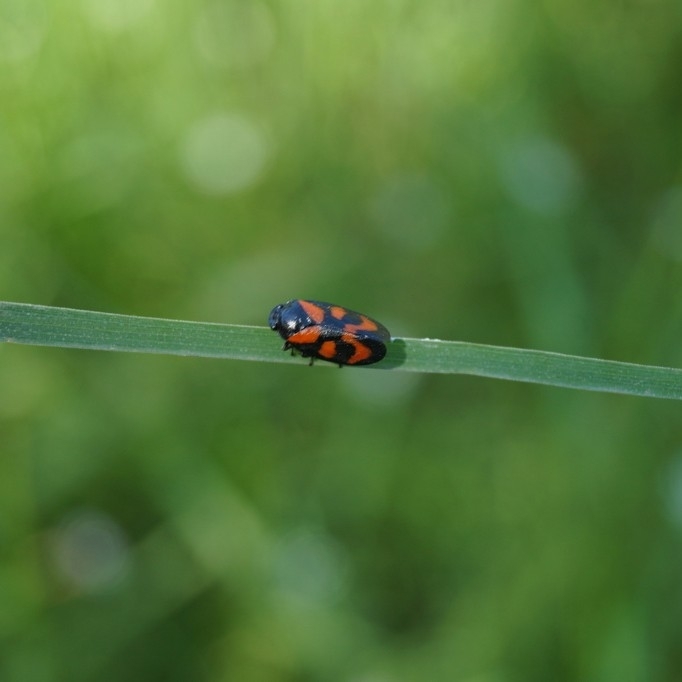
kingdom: Animalia
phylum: Arthropoda
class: Insecta
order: Hemiptera
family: Cercopidae
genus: Cercopis
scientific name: Cercopis vulnerata
